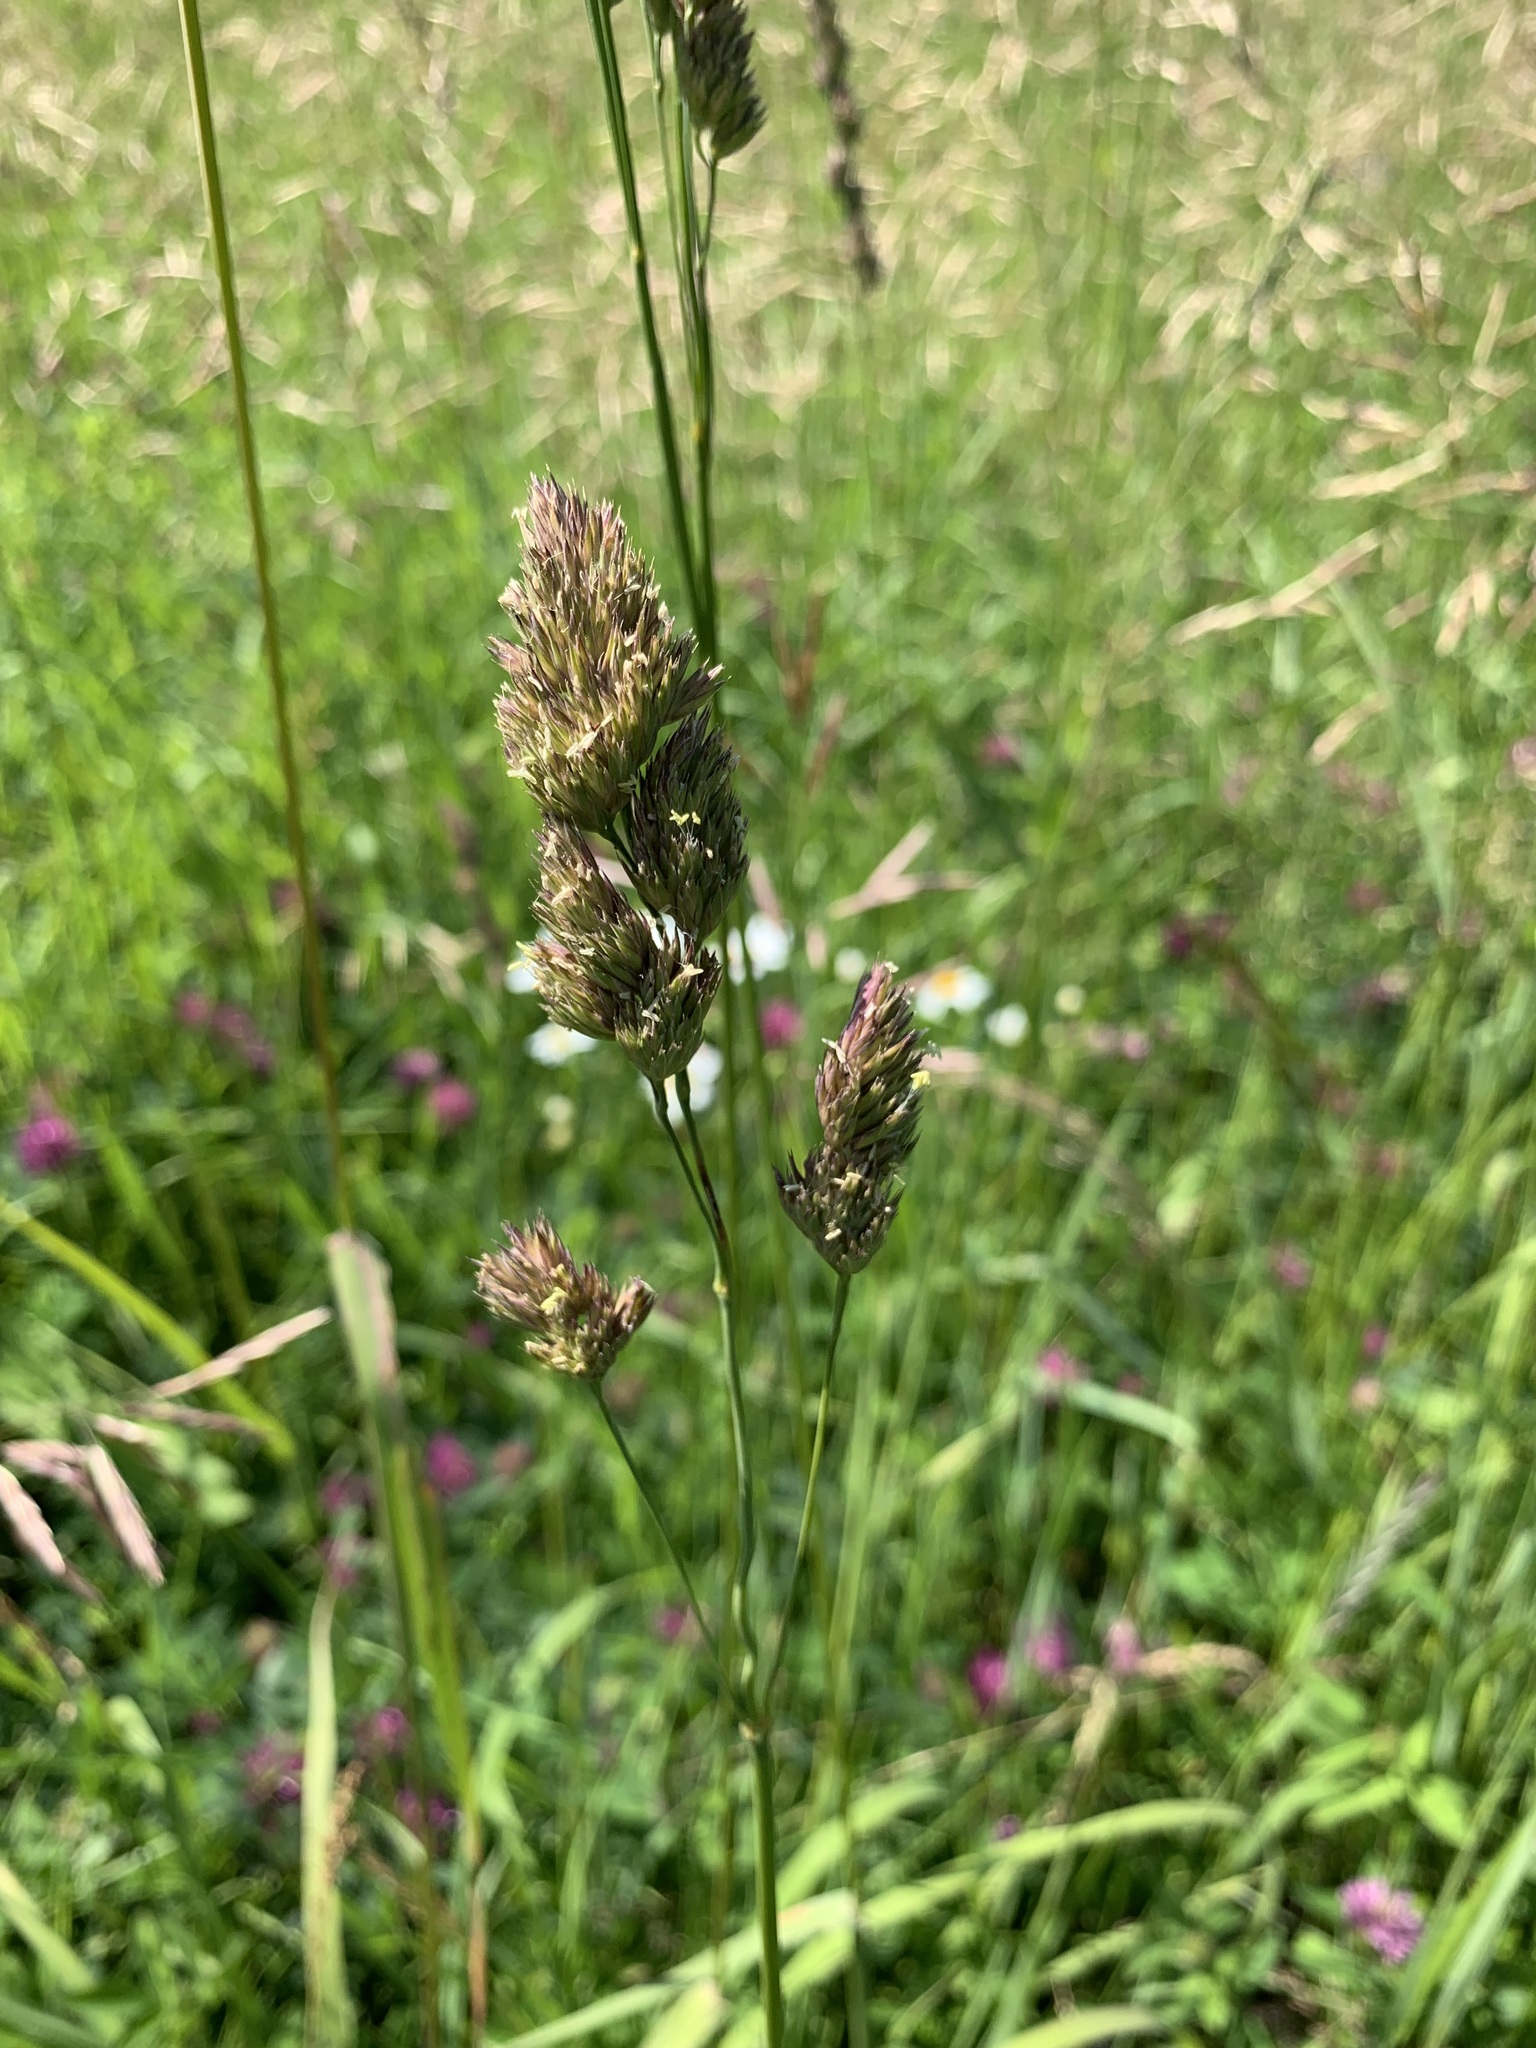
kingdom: Plantae
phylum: Tracheophyta
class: Liliopsida
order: Poales
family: Poaceae
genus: Dactylis
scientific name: Dactylis glomerata
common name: Orchardgrass
